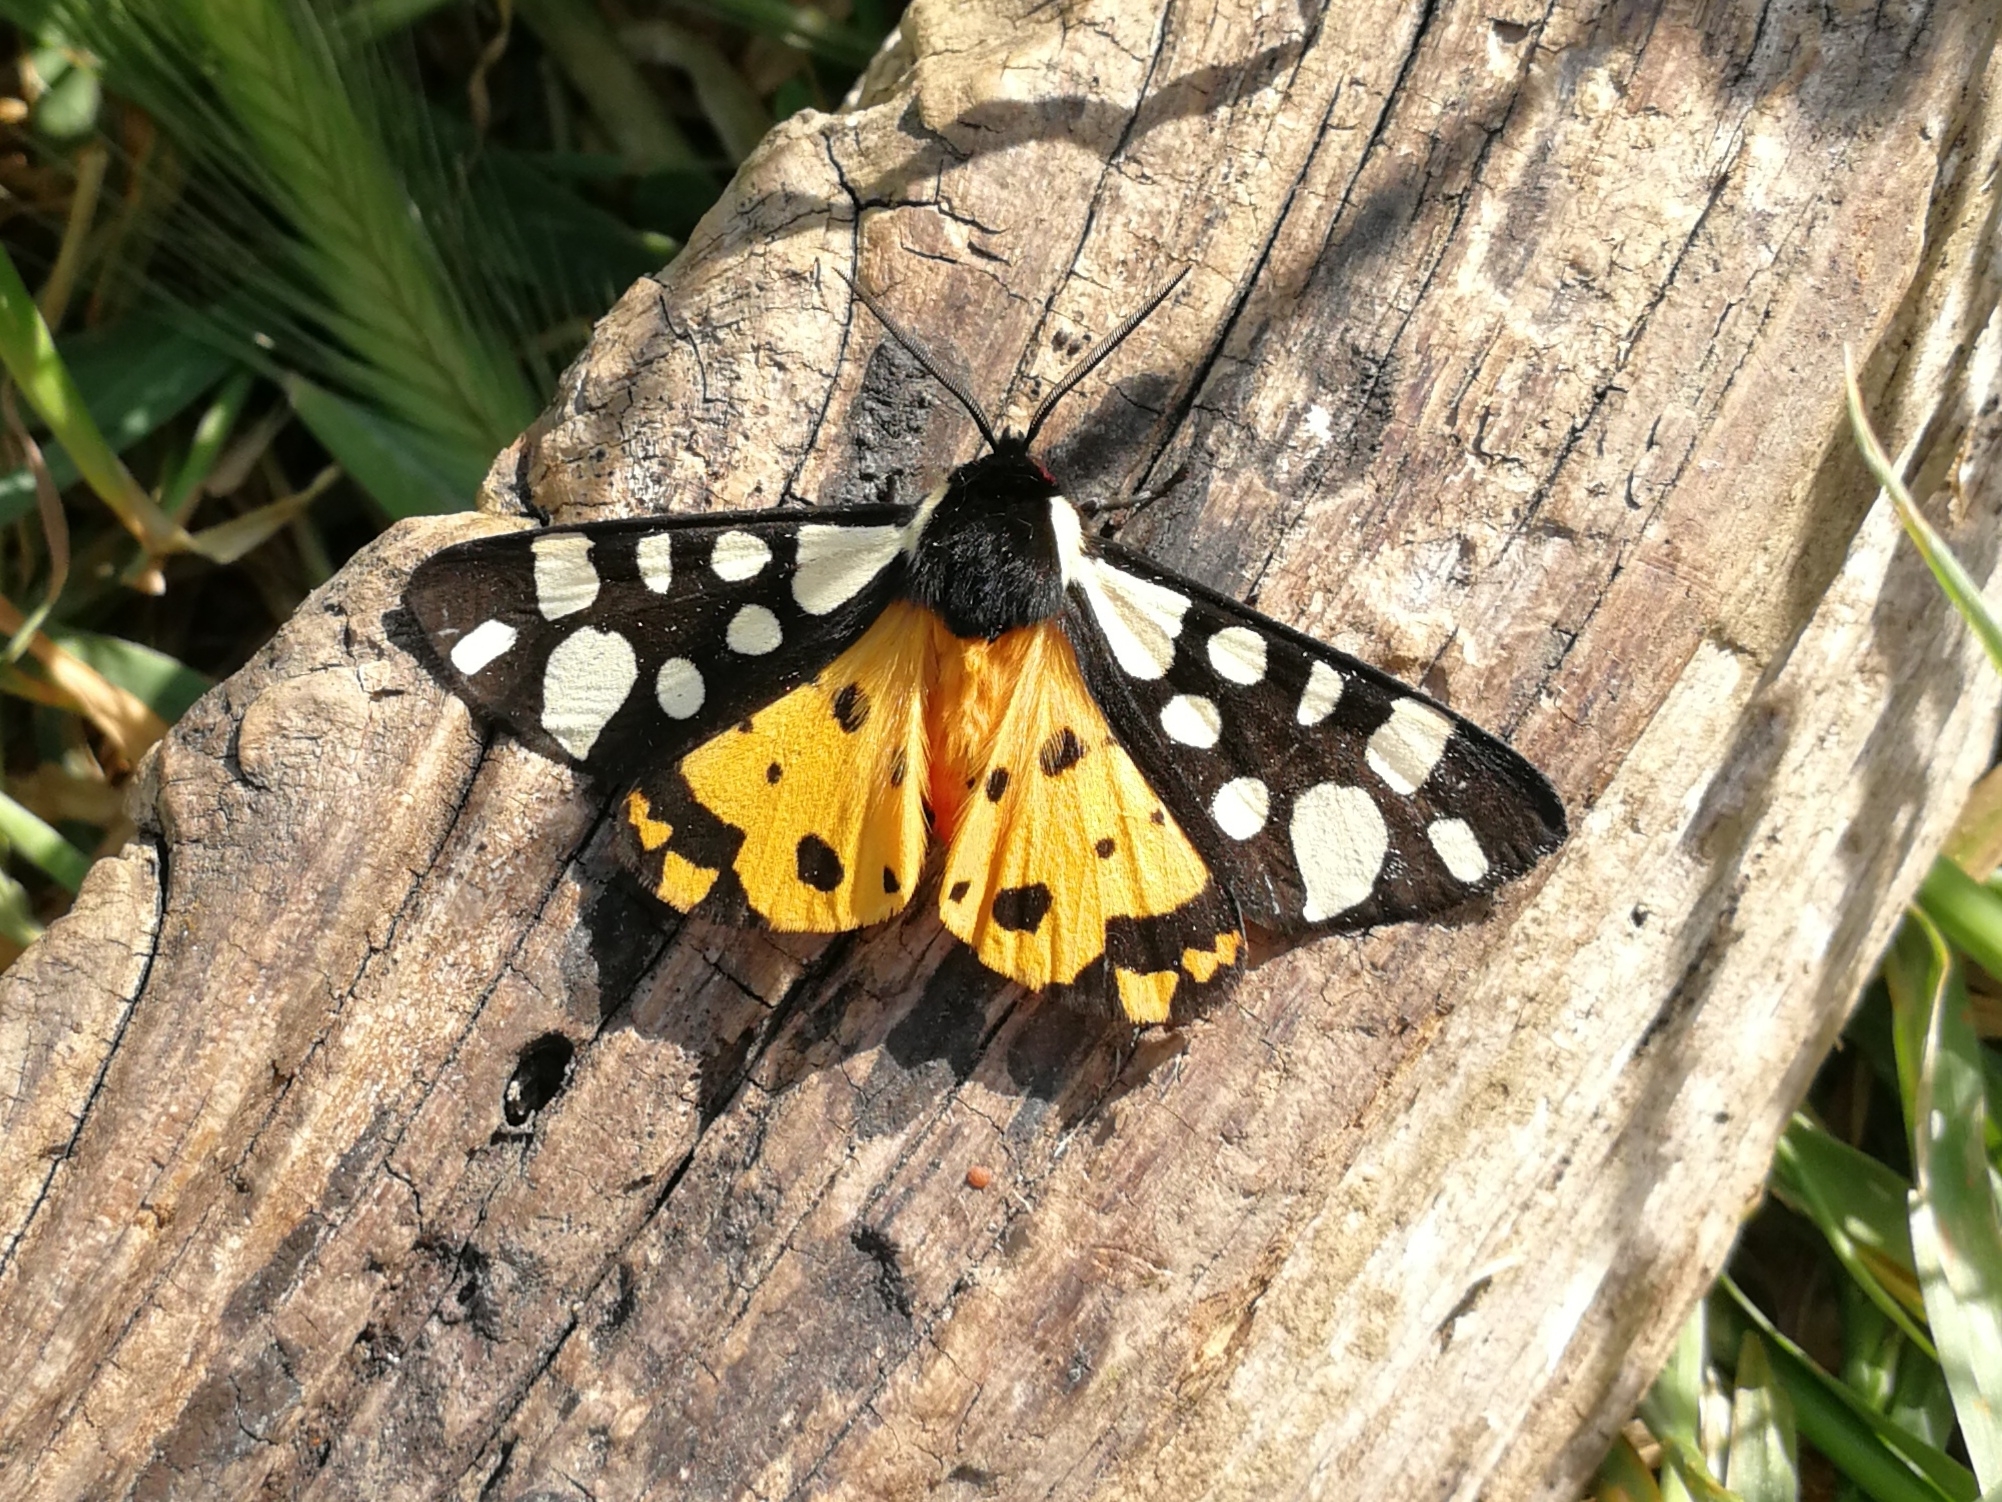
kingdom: Animalia
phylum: Arthropoda
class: Insecta
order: Lepidoptera
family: Erebidae
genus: Epicallia
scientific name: Epicallia villica
